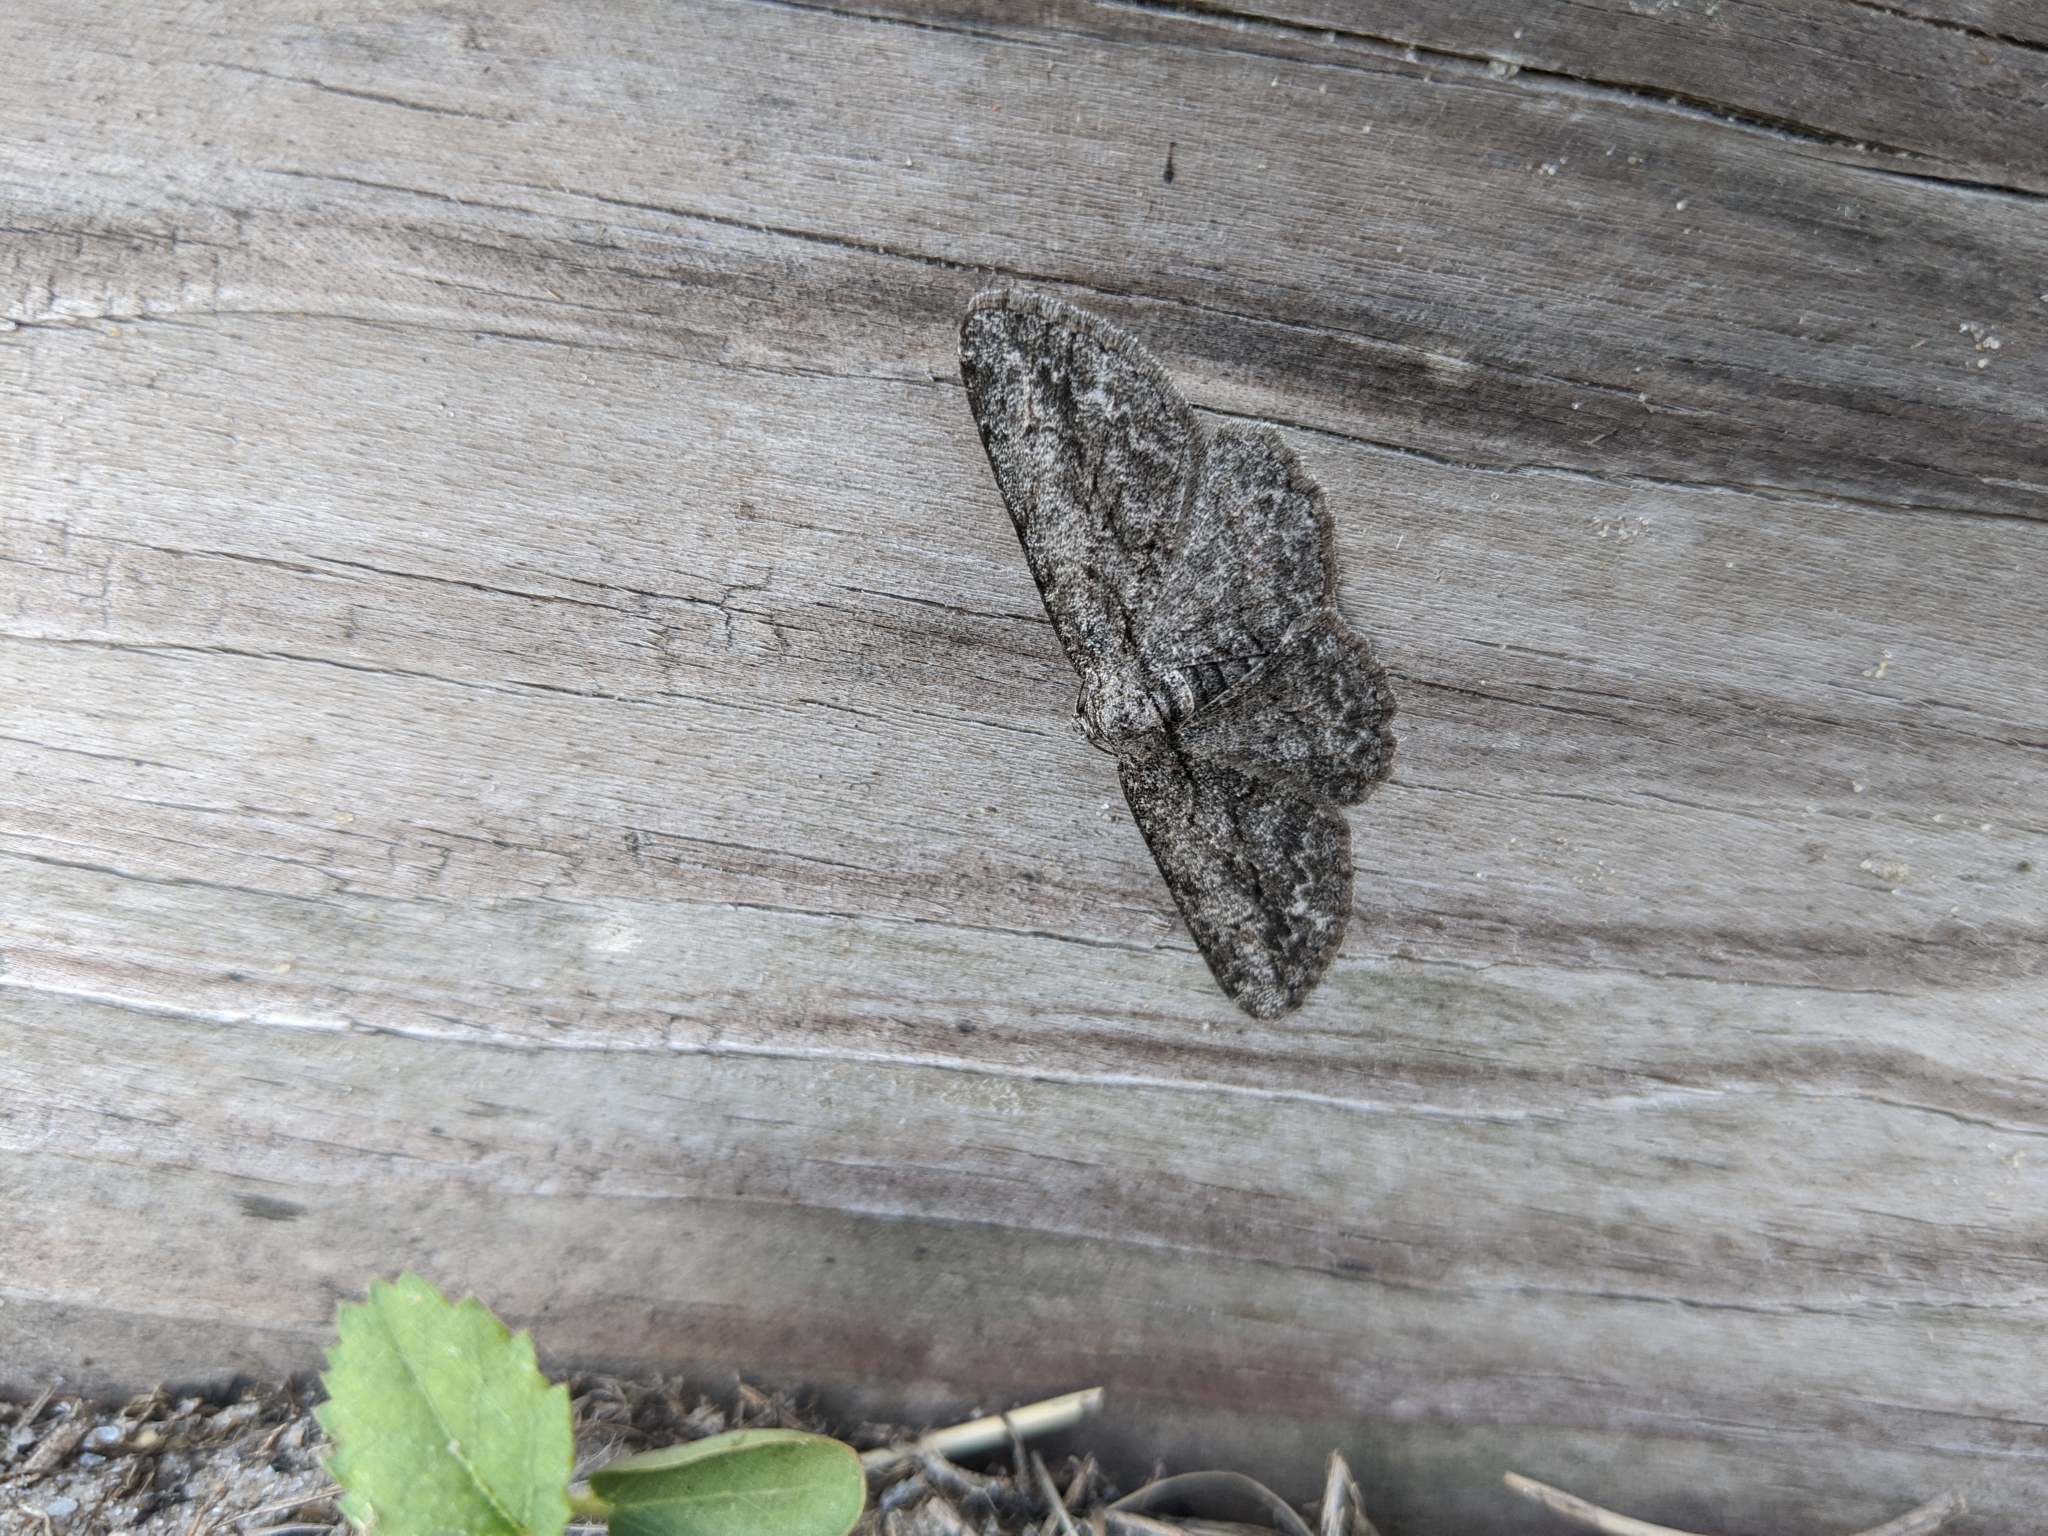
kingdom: Animalia
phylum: Arthropoda
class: Insecta
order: Lepidoptera
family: Geometridae
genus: Anavitrinella
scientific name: Anavitrinella pampinaria
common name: Common gray
